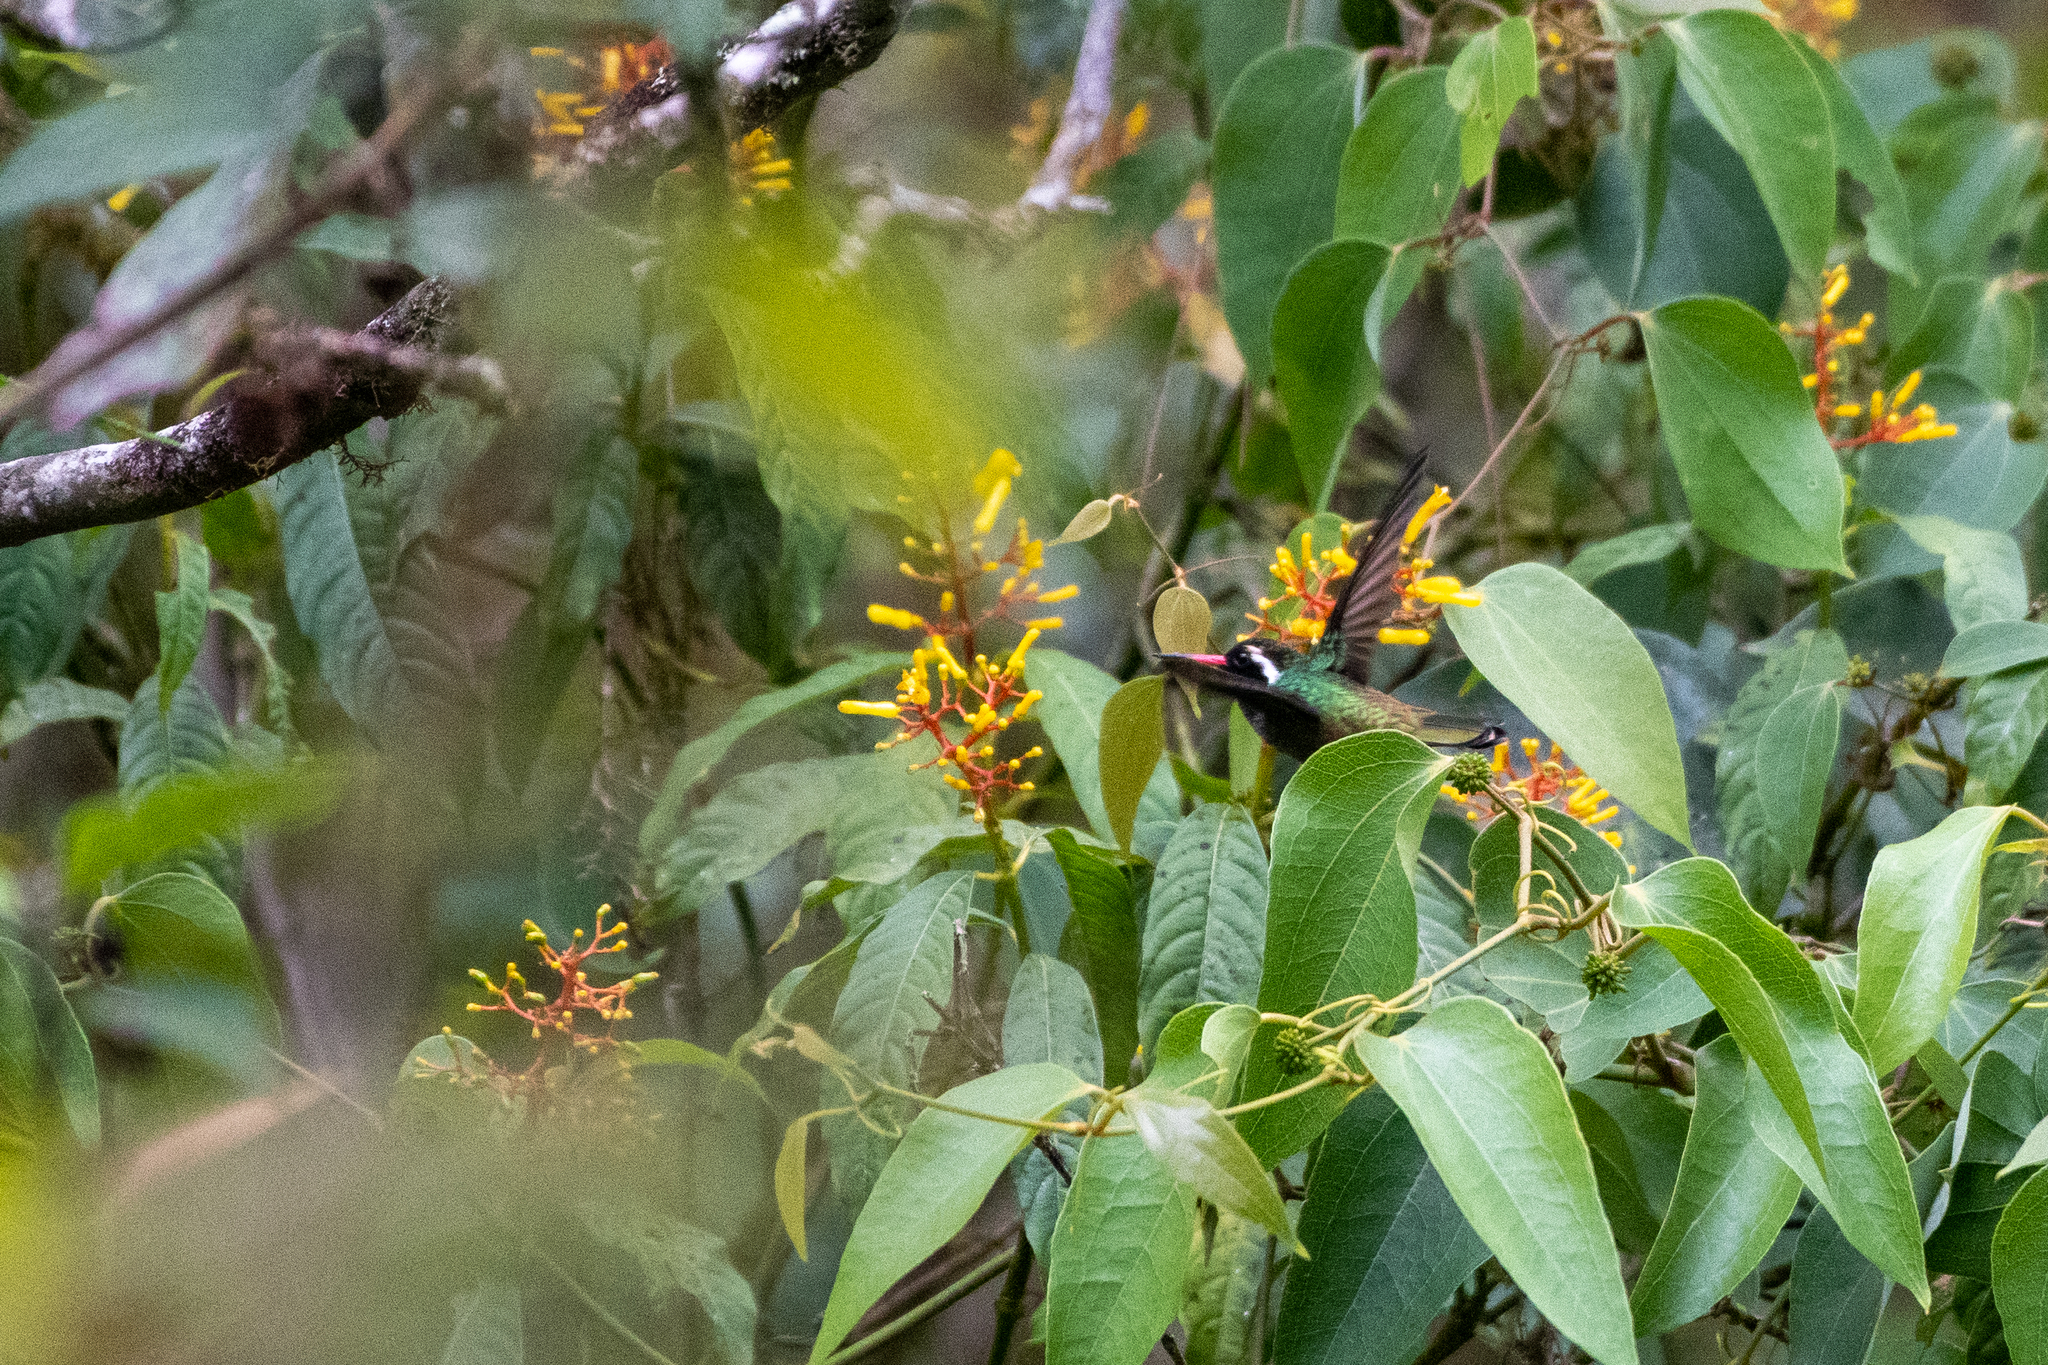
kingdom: Animalia
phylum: Chordata
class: Aves
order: Apodiformes
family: Trochilidae
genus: Basilinna
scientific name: Basilinna leucotis
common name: White-eared hummingbird
